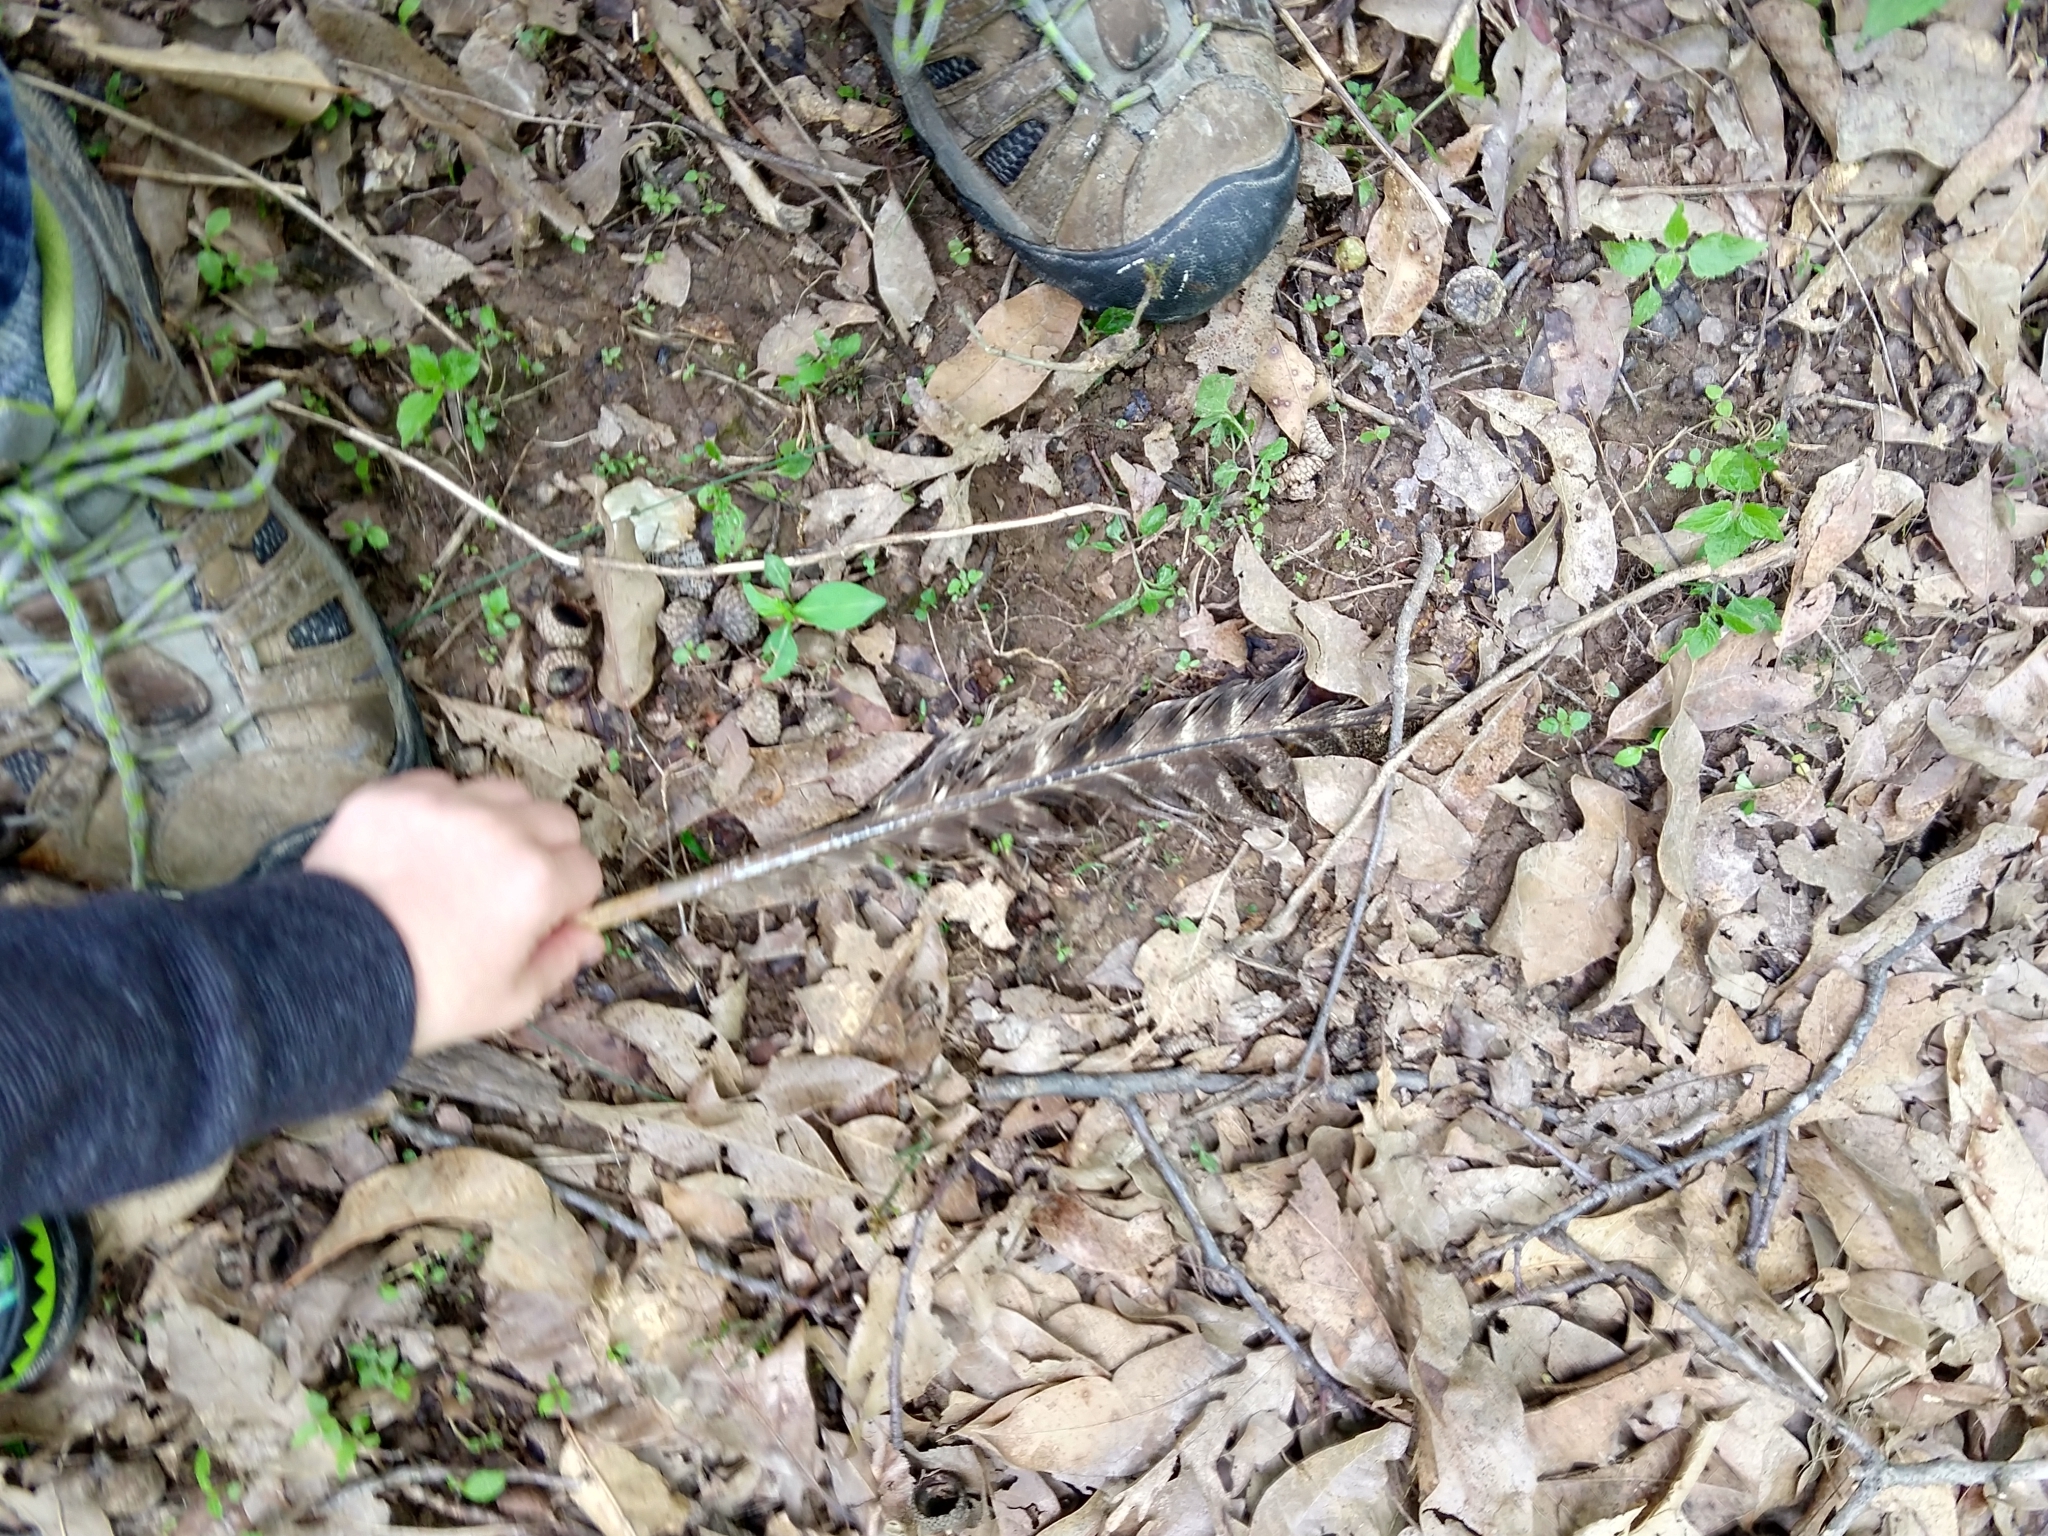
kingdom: Animalia
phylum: Chordata
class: Aves
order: Galliformes
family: Phasianidae
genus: Meleagris
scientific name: Meleagris gallopavo
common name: Wild turkey
